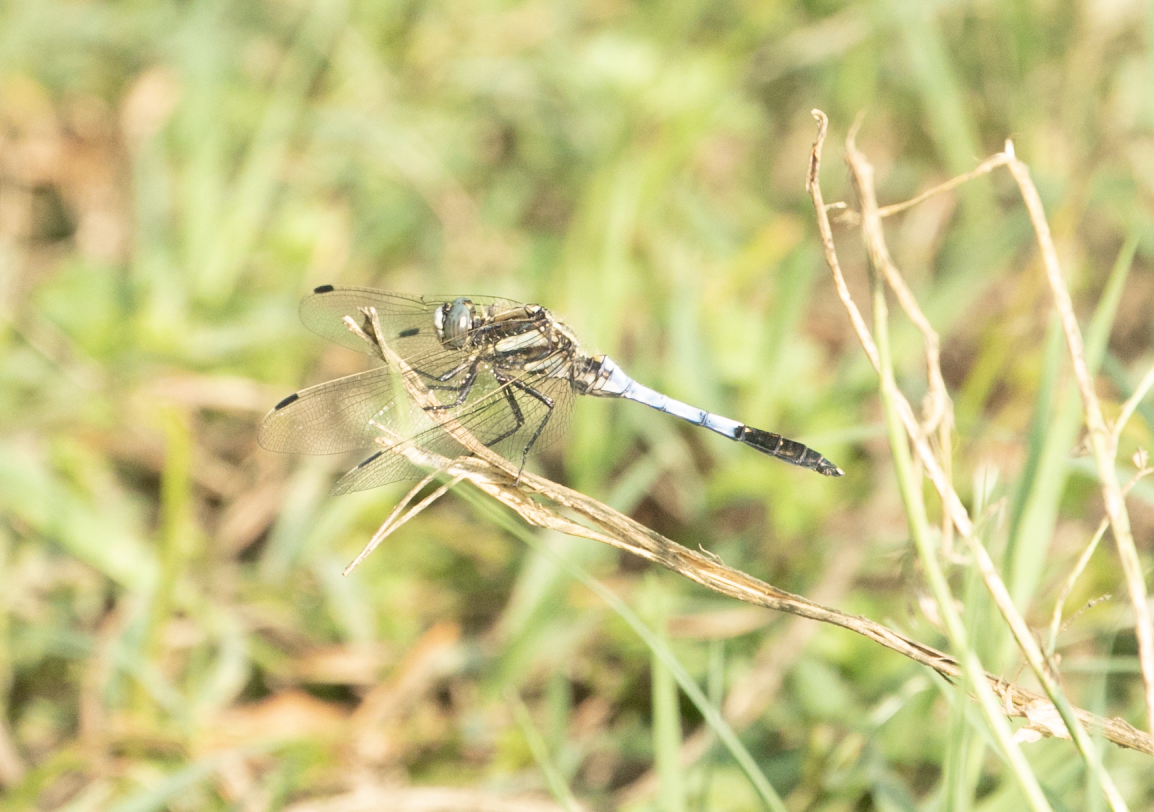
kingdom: Animalia
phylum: Arthropoda
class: Insecta
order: Odonata
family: Libellulidae
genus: Orthetrum
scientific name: Orthetrum albistylum
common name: White-tailed skimmer
